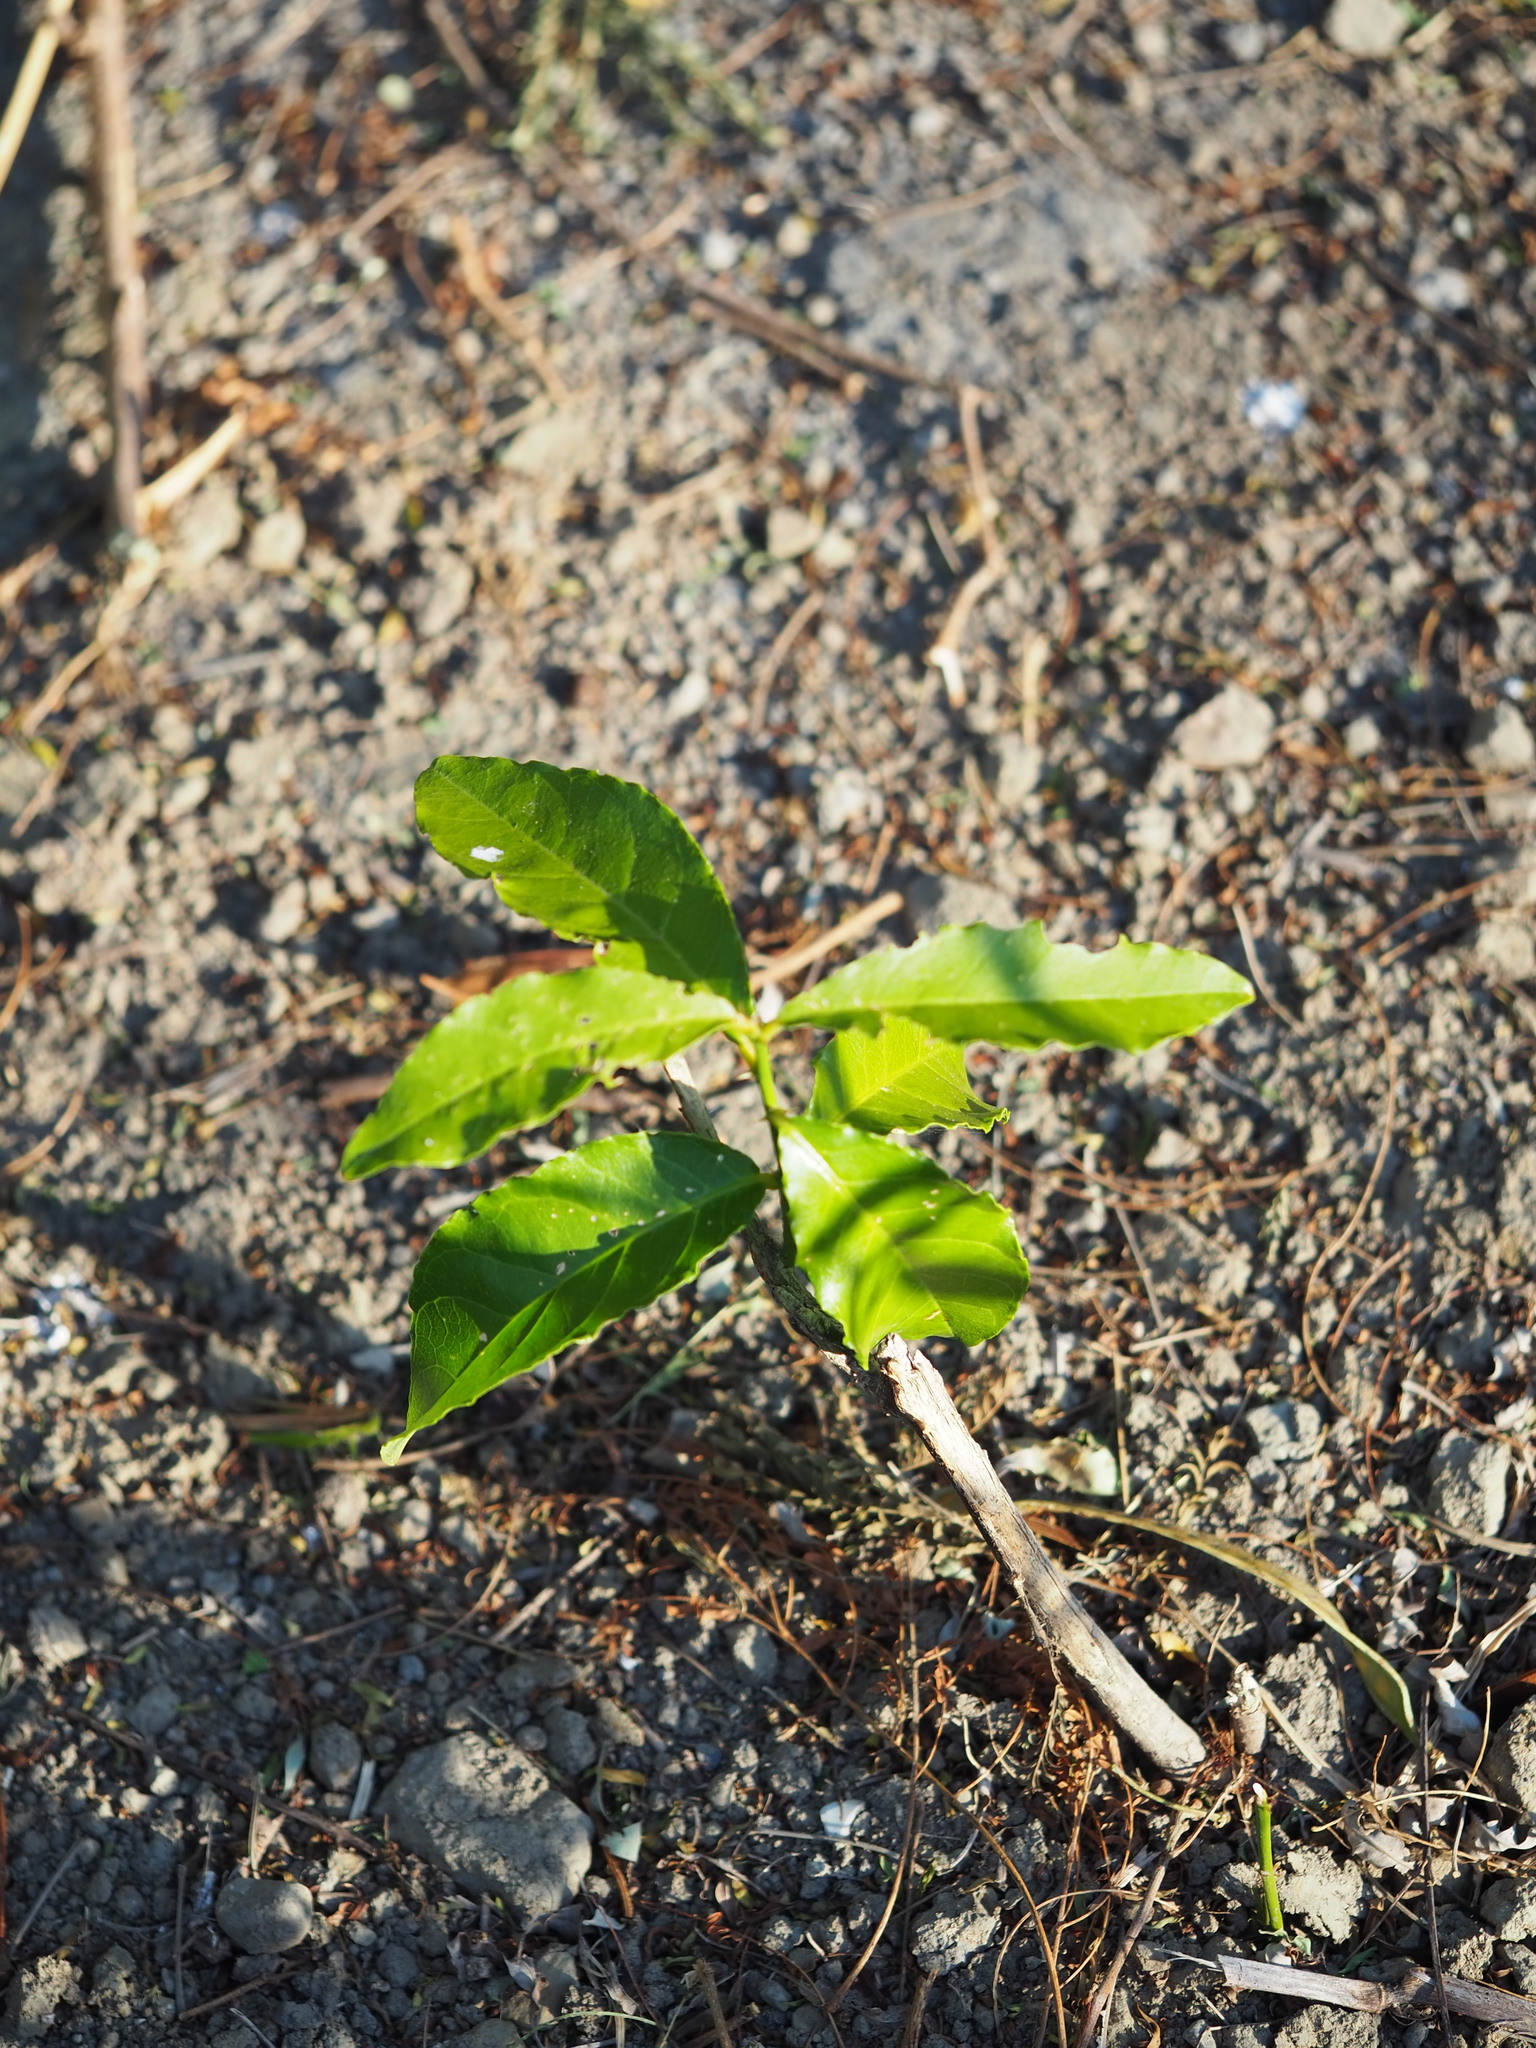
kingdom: Plantae
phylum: Tracheophyta
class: Magnoliopsida
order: Brassicales
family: Capparaceae
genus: Capparis
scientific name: Capparis henryi
